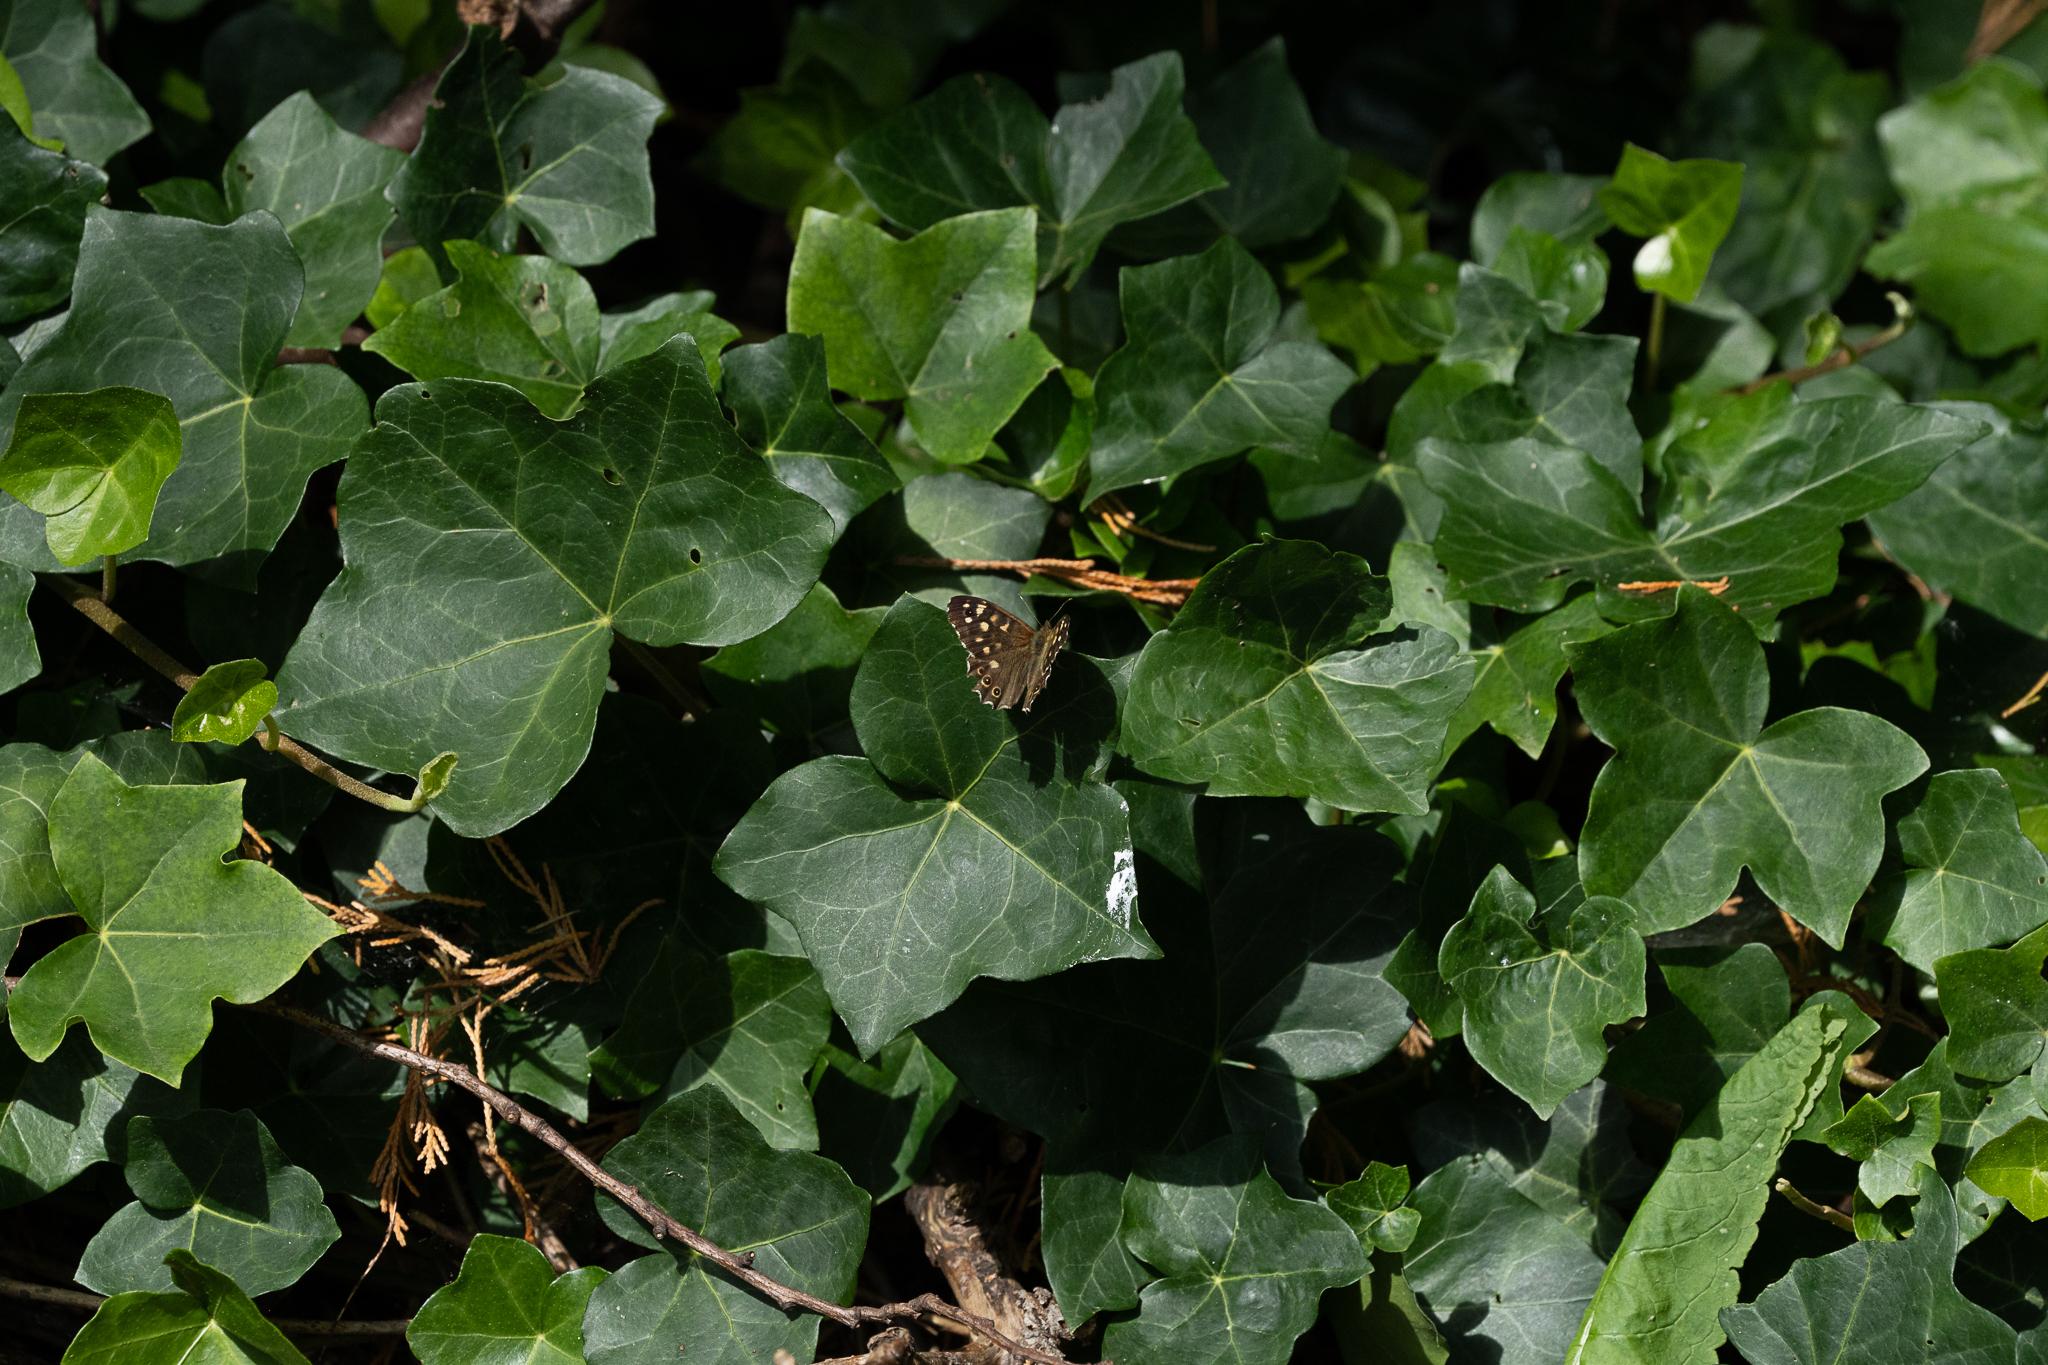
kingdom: Animalia
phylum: Arthropoda
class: Insecta
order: Lepidoptera
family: Nymphalidae
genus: Pararge
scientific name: Pararge aegeria
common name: Speckled wood
